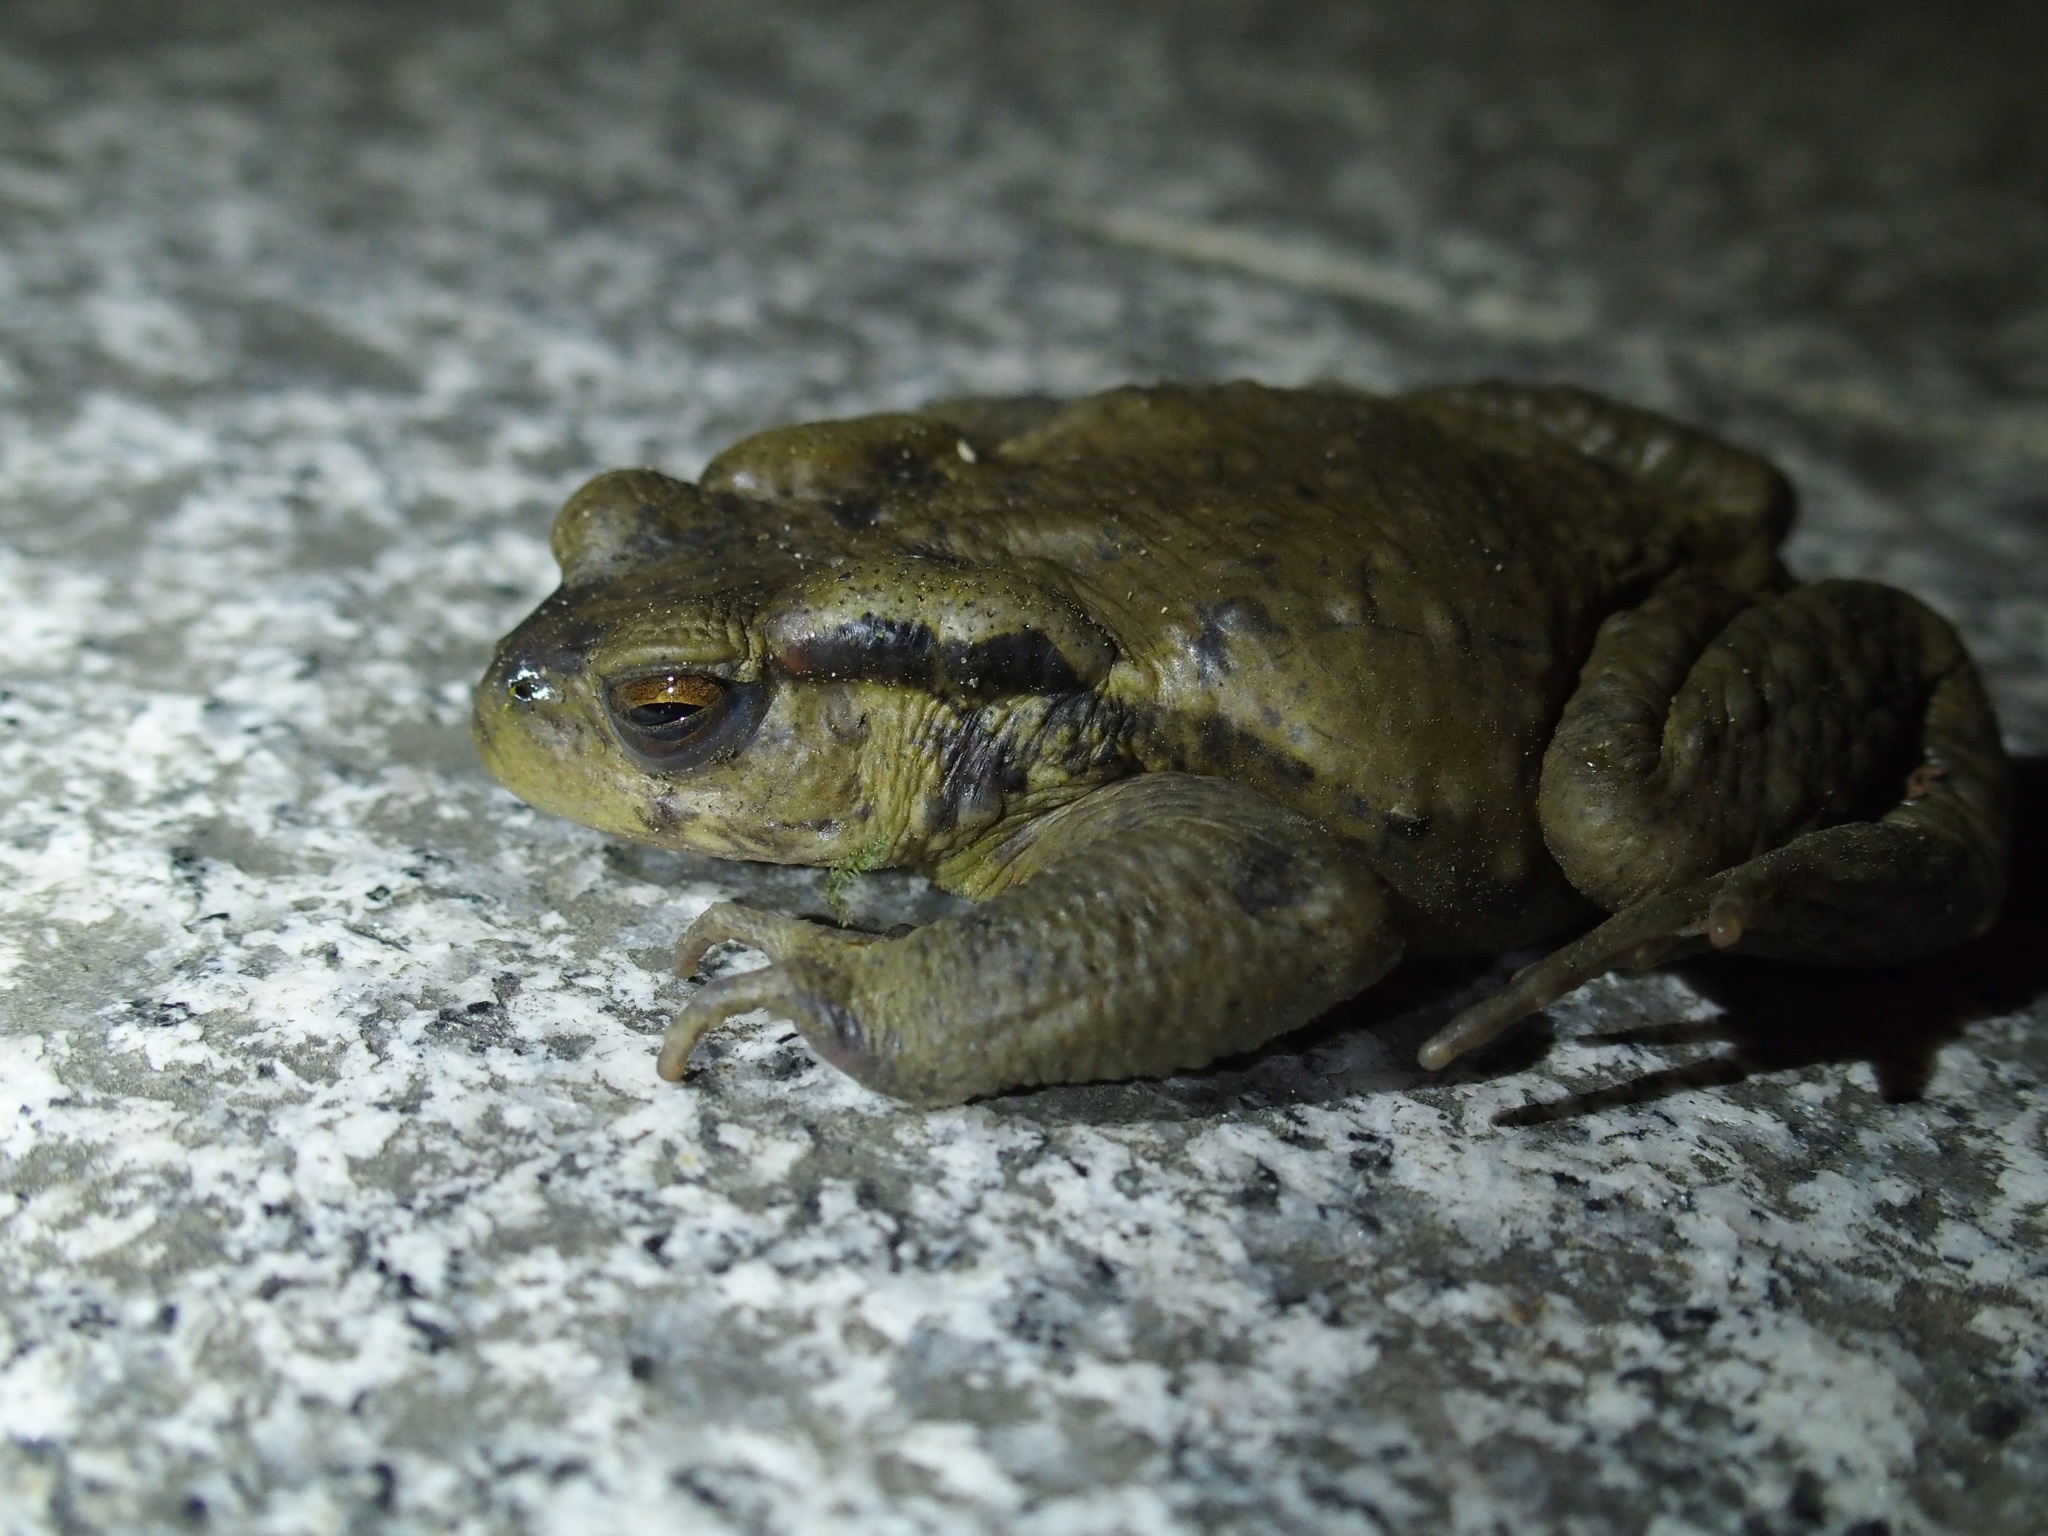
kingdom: Animalia
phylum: Chordata
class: Amphibia
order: Anura
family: Bufonidae
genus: Bufo
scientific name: Bufo bankorensis
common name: Bankor toad
